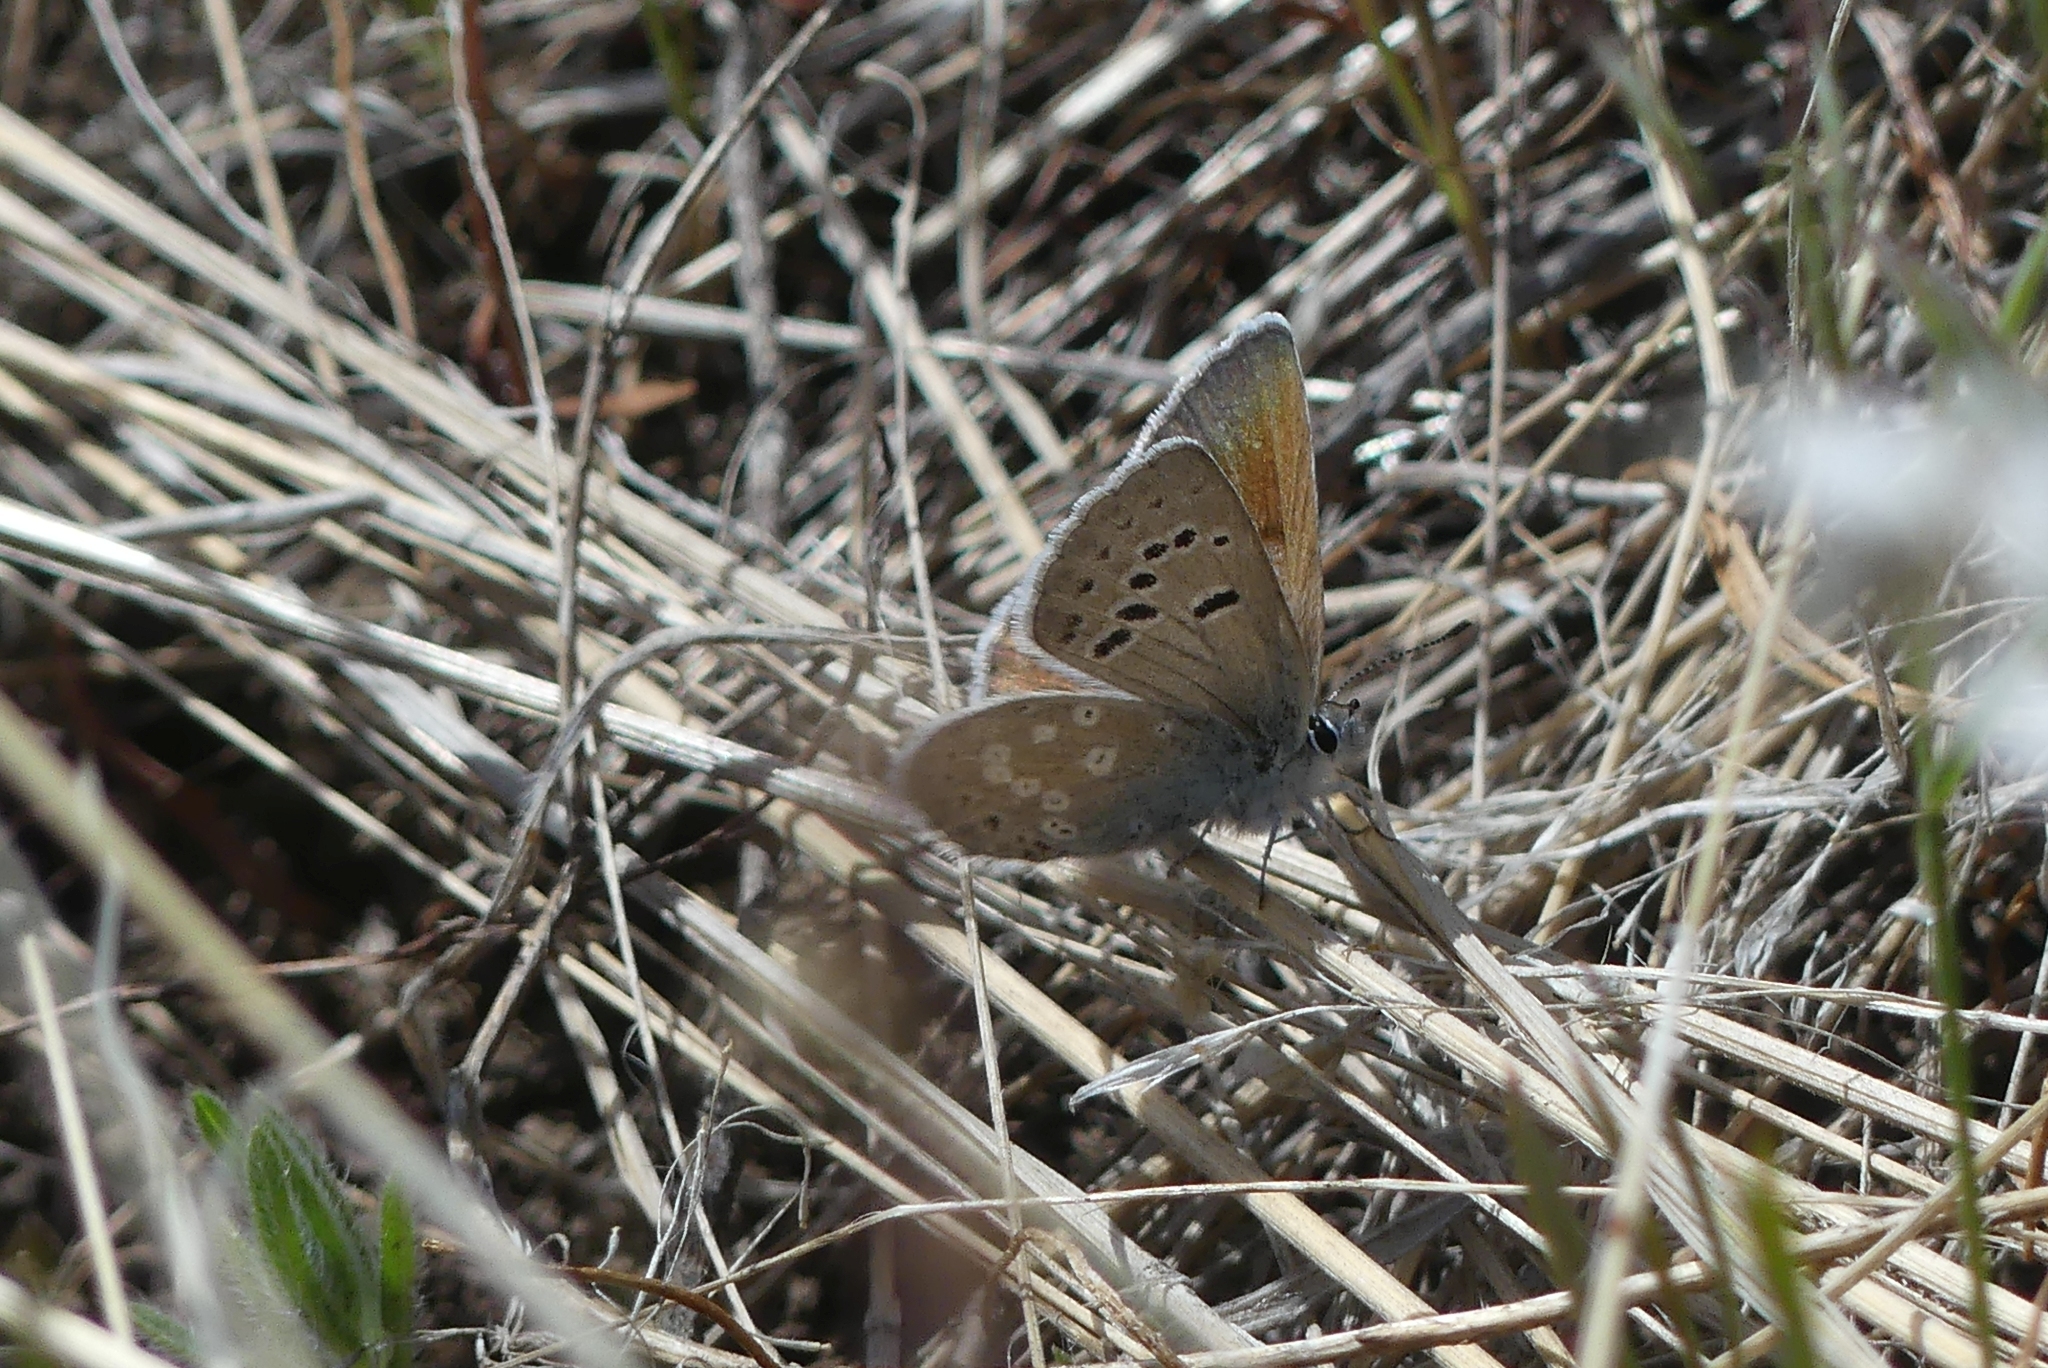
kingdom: Animalia
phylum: Arthropoda
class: Insecta
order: Lepidoptera
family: Lycaenidae
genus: Icaricia
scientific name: Icaricia icarioides
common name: Boisduval's blue
